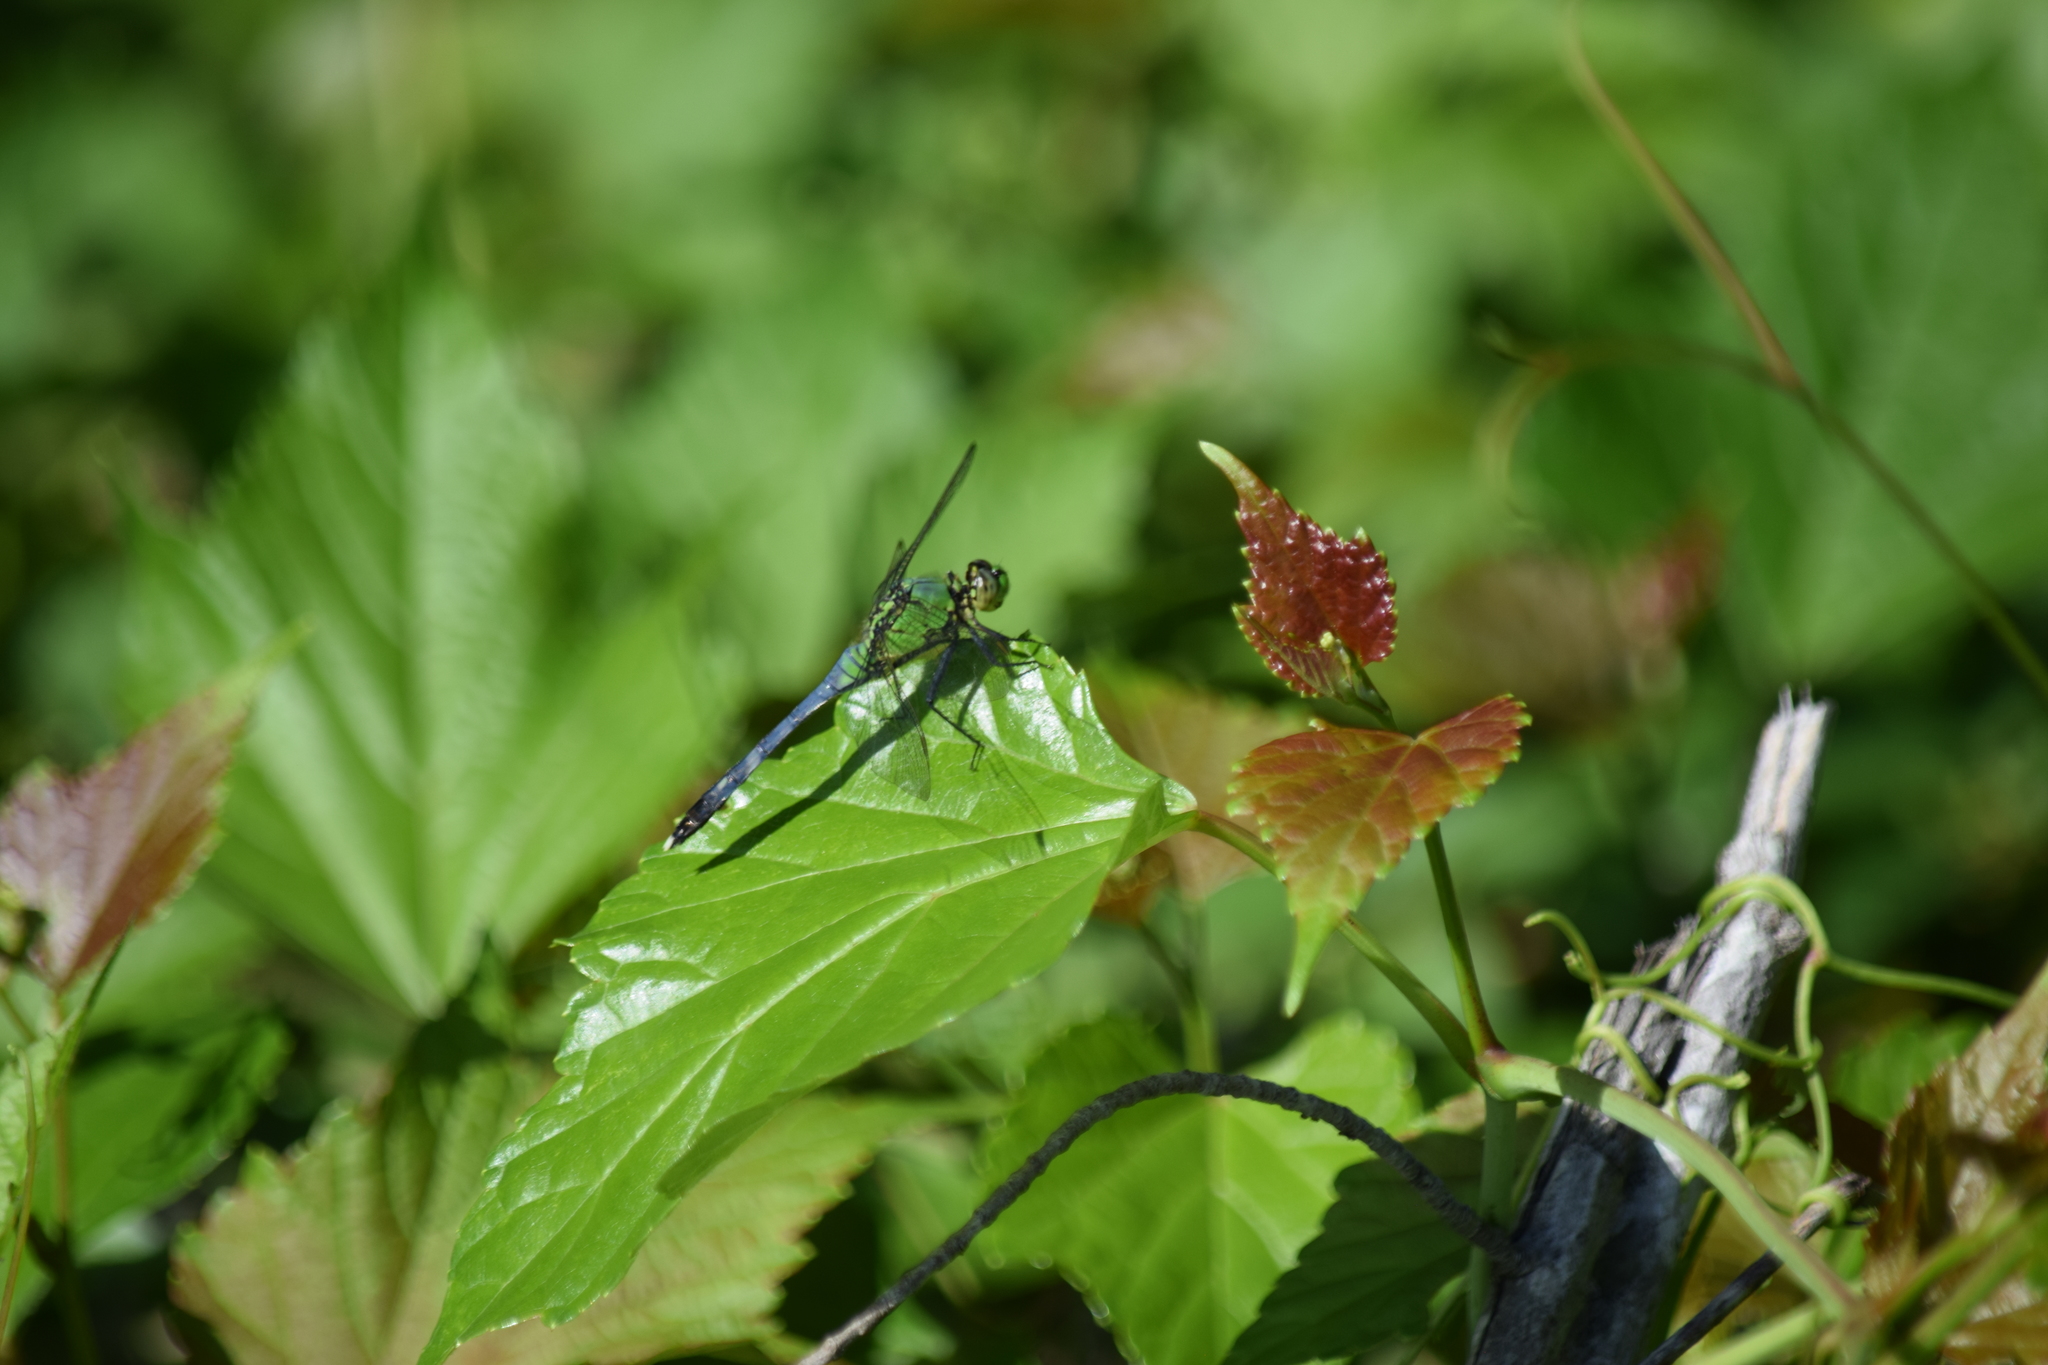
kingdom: Animalia
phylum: Arthropoda
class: Insecta
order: Odonata
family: Libellulidae
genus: Erythemis
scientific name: Erythemis simplicicollis
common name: Eastern pondhawk
